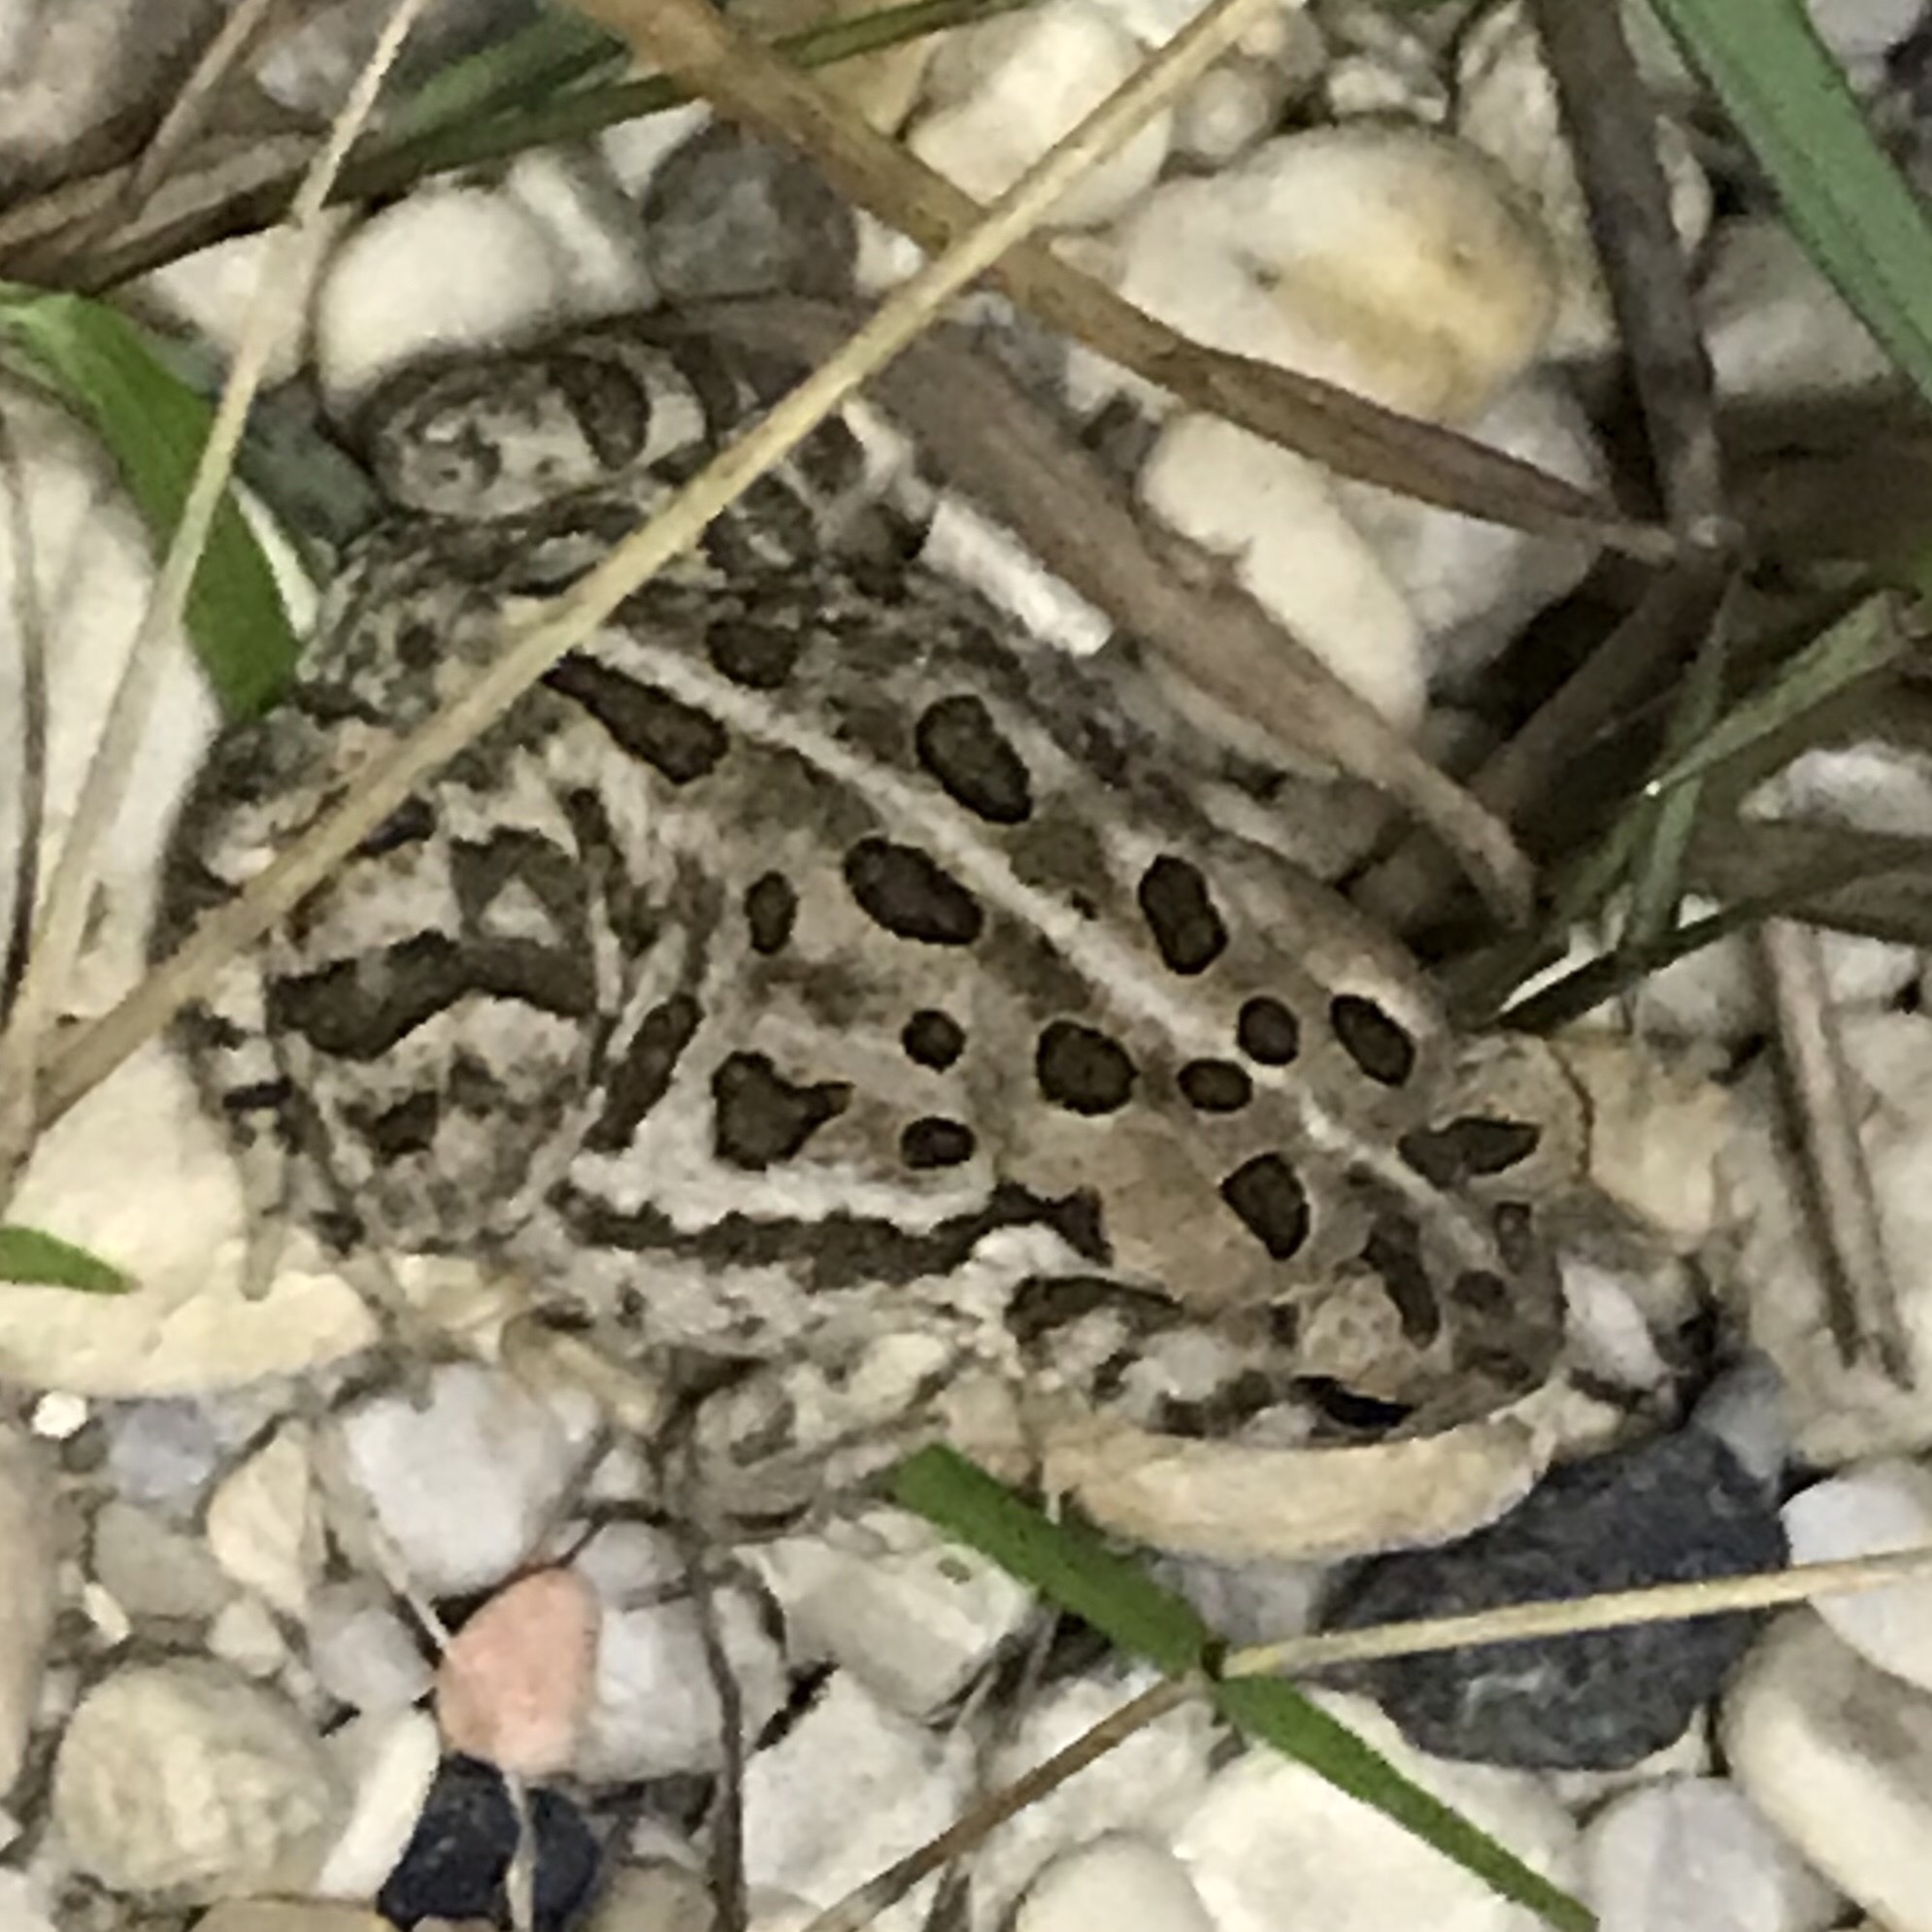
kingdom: Animalia
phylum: Chordata
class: Amphibia
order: Anura
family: Bufonidae
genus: Anaxyrus
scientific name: Anaxyrus fowleri
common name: Fowler's toad
